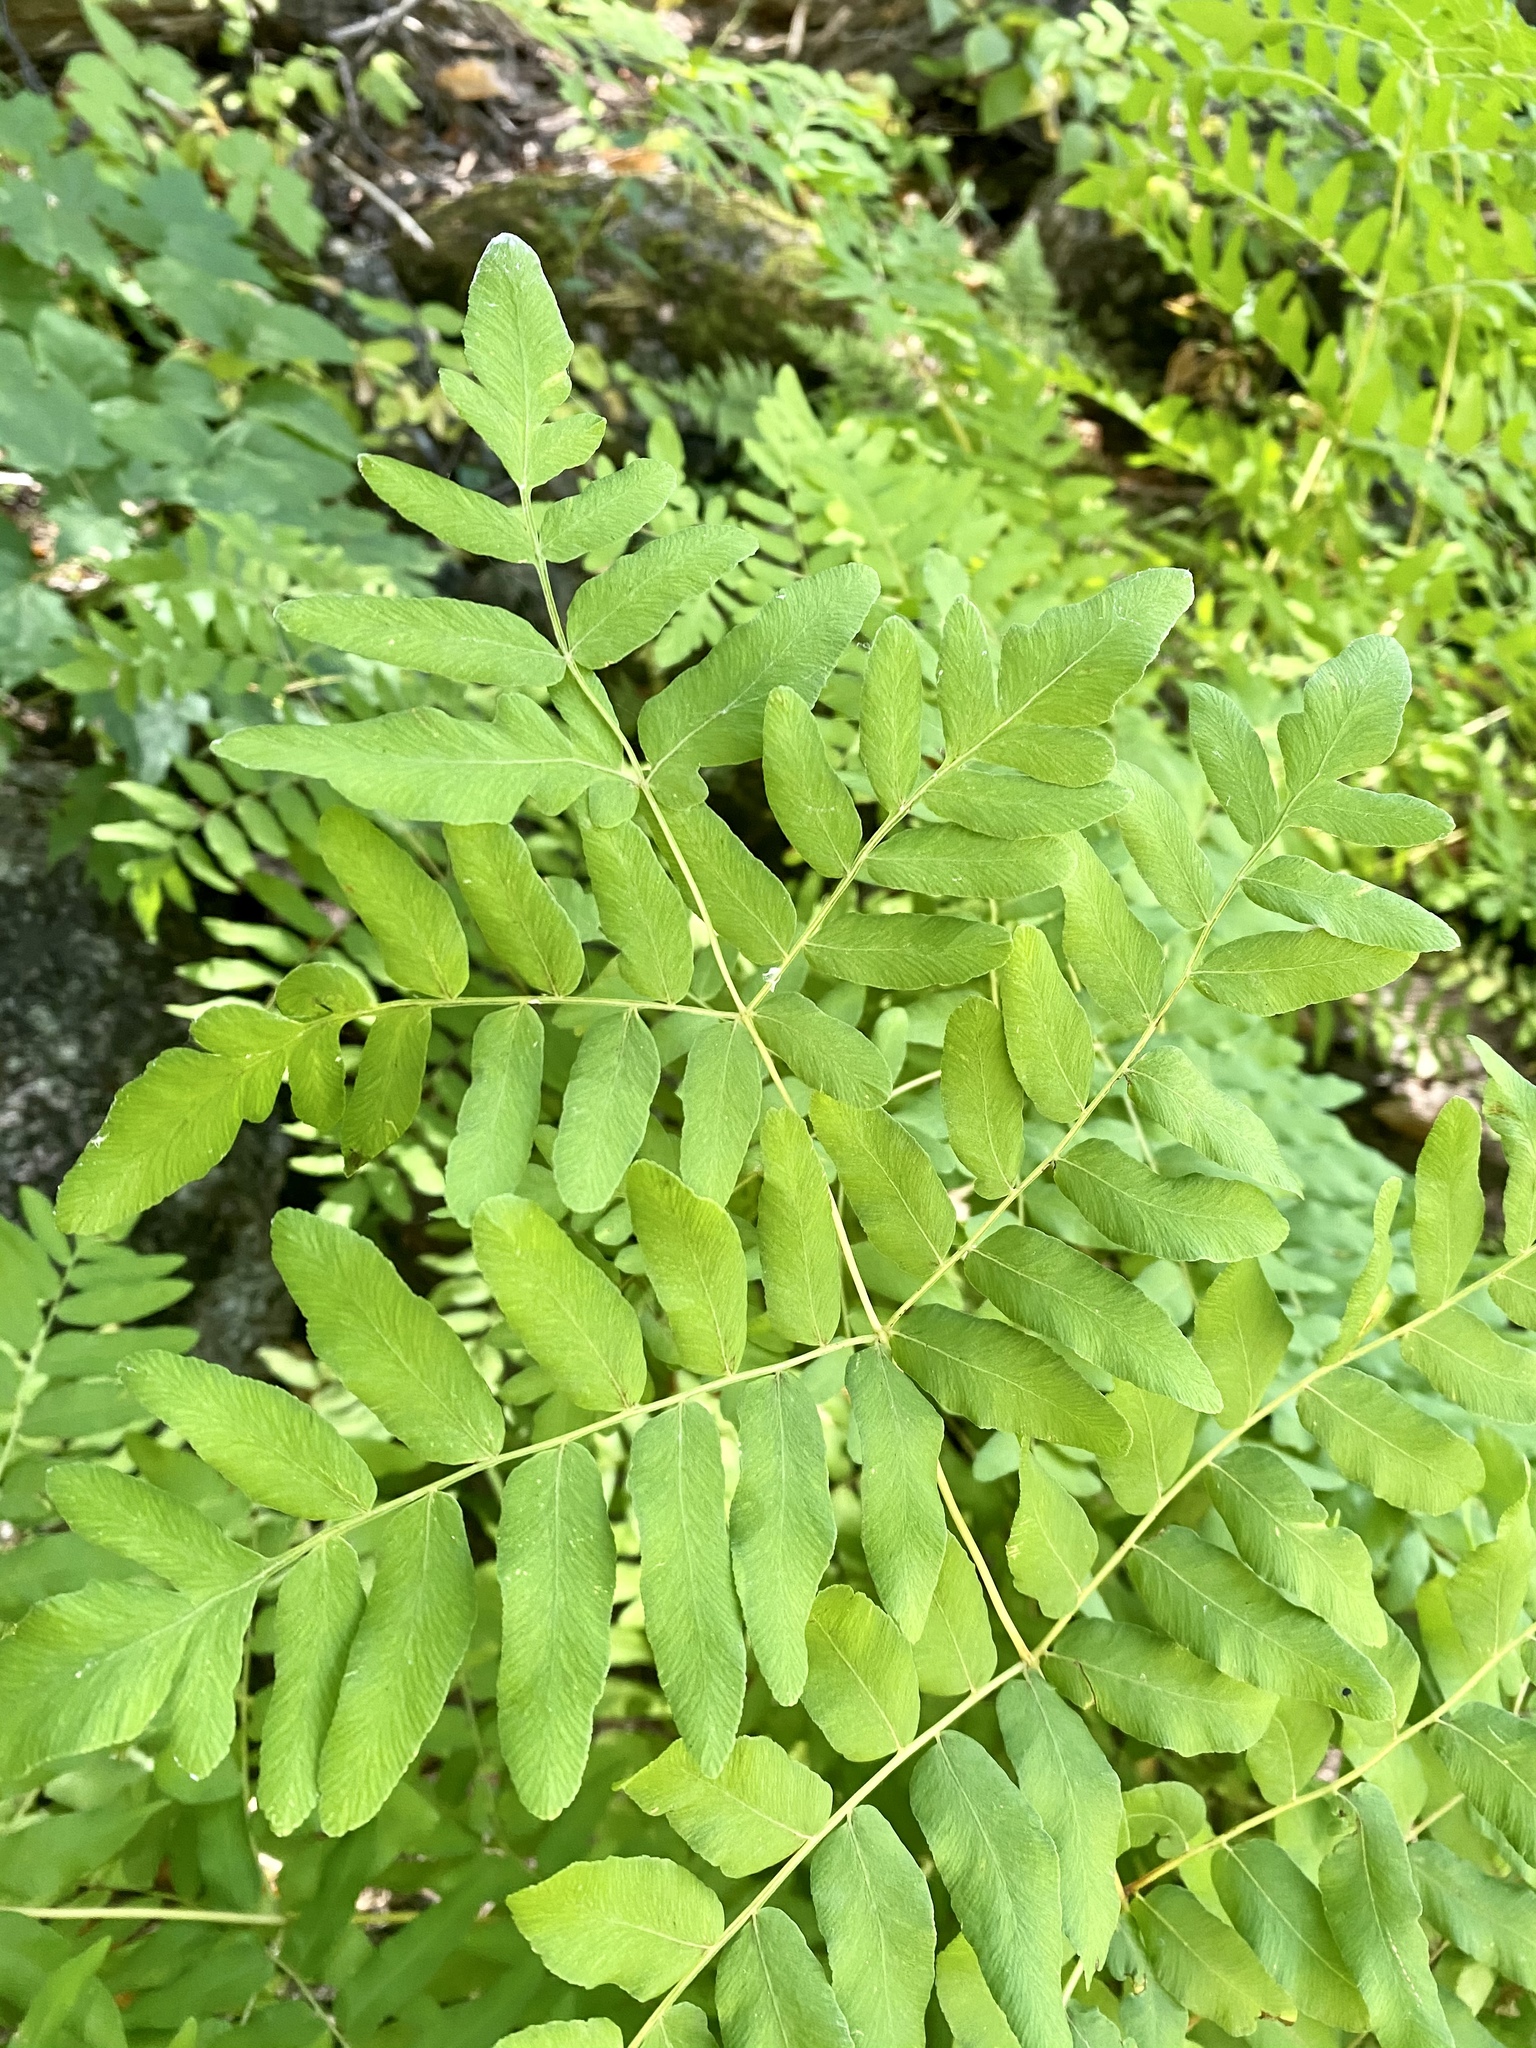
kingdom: Plantae
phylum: Tracheophyta
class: Polypodiopsida
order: Osmundales
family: Osmundaceae
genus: Osmunda
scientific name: Osmunda spectabilis
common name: American royal fern
